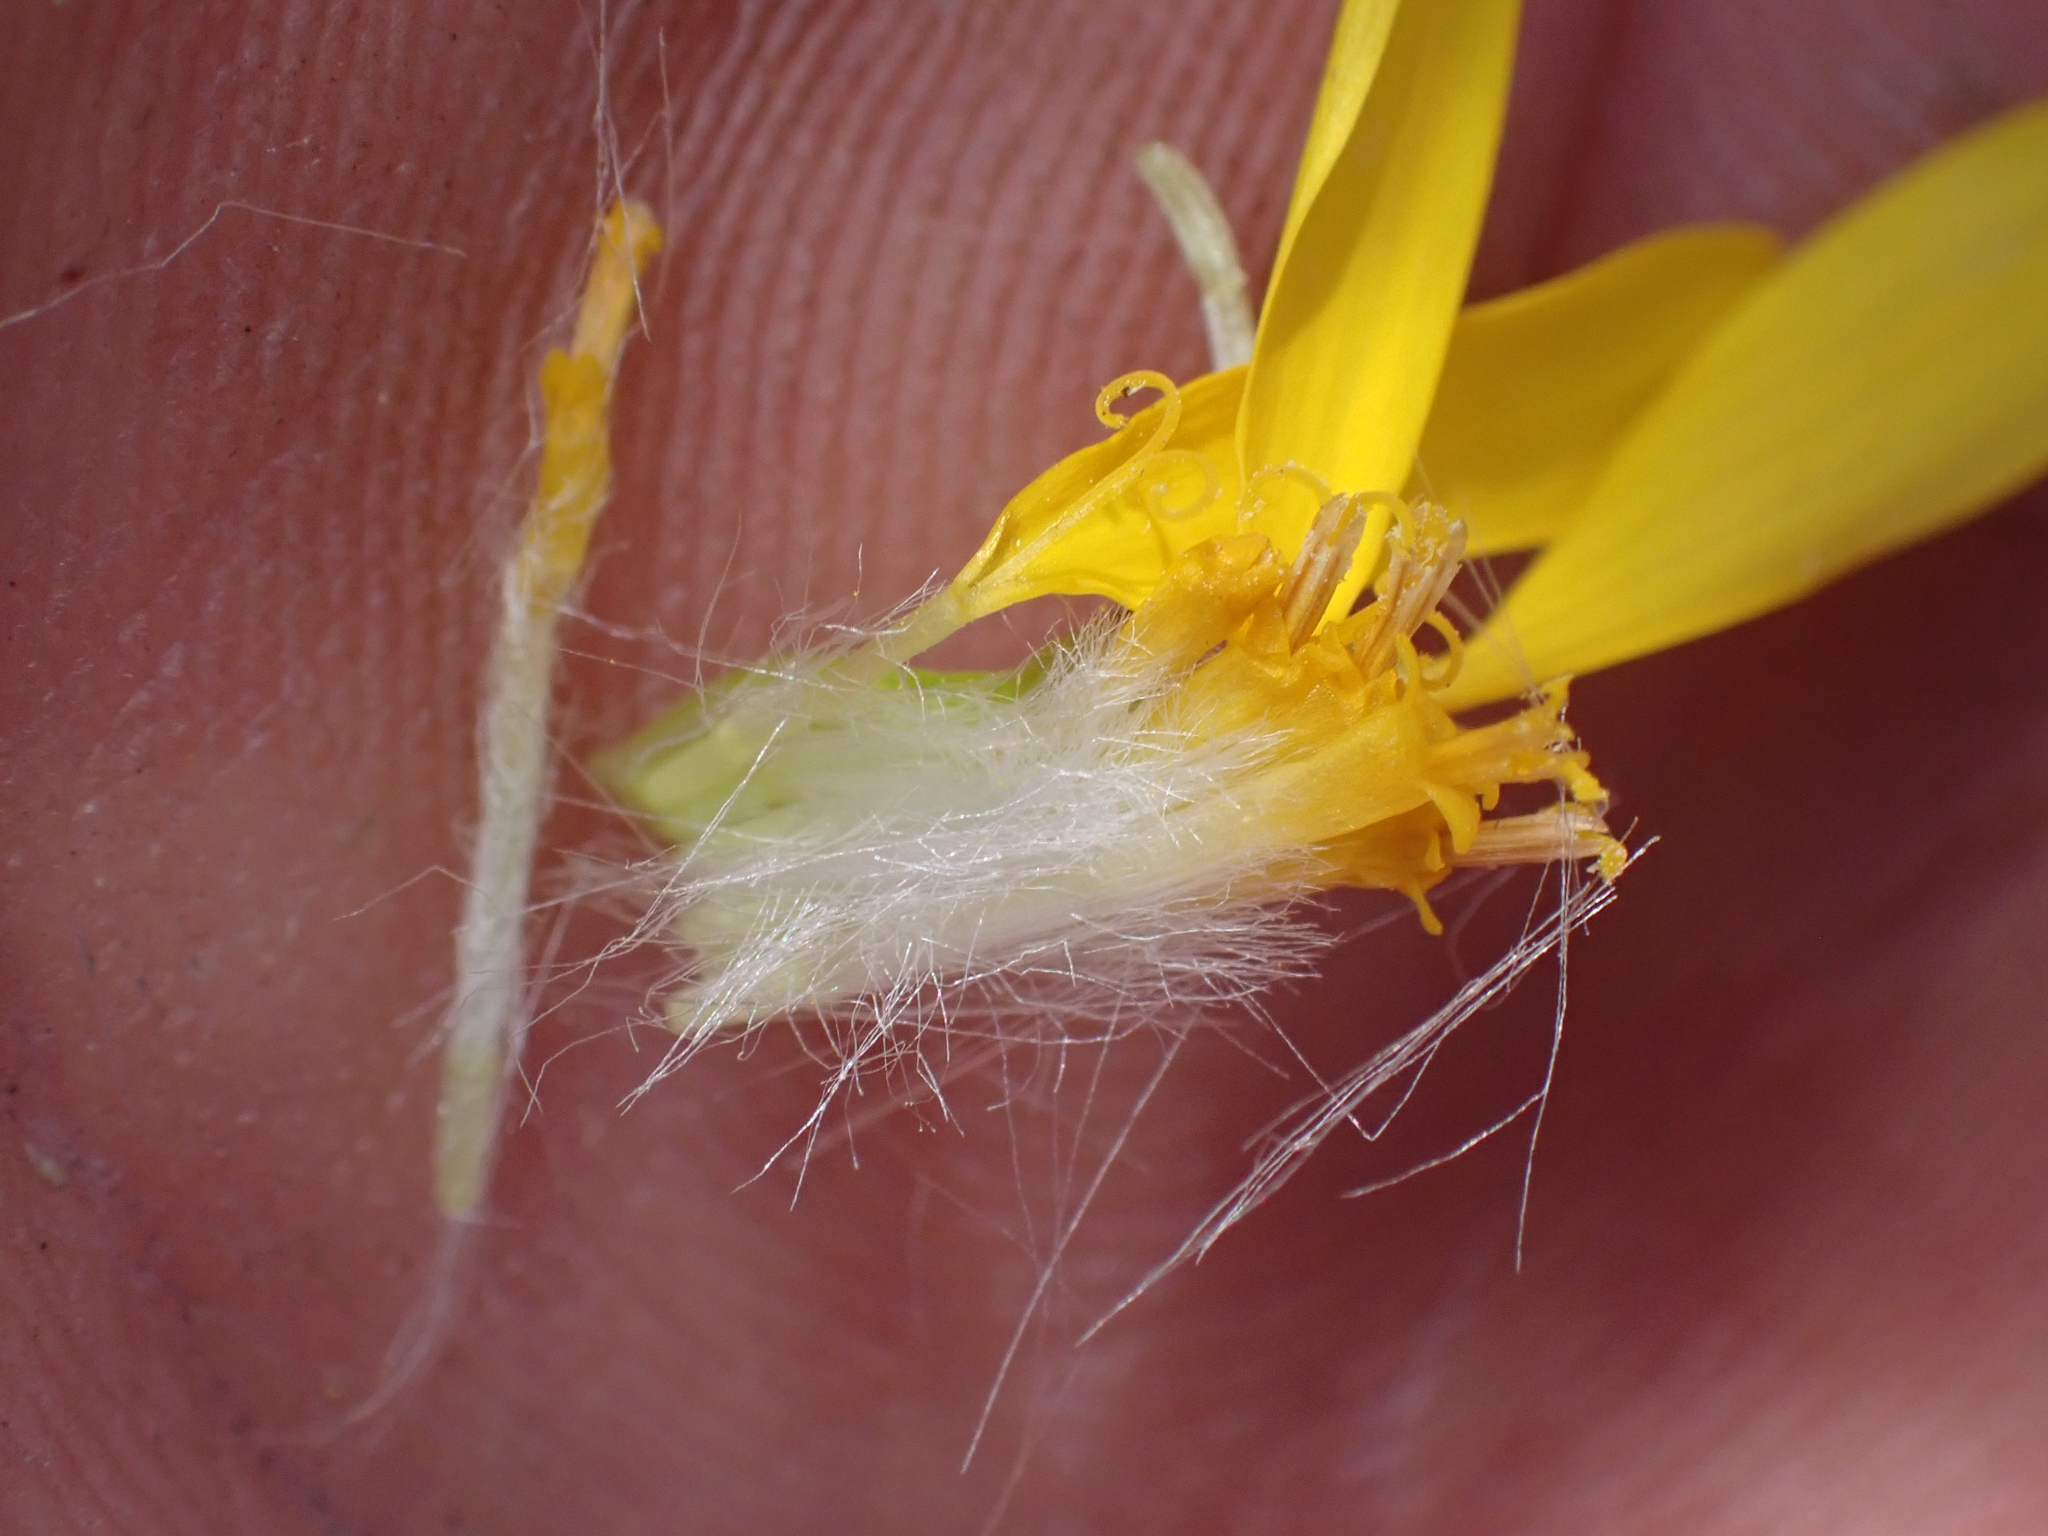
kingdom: Plantae
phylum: Tracheophyta
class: Magnoliopsida
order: Asterales
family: Asteraceae
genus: Senecio
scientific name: Senecio lemmonii
